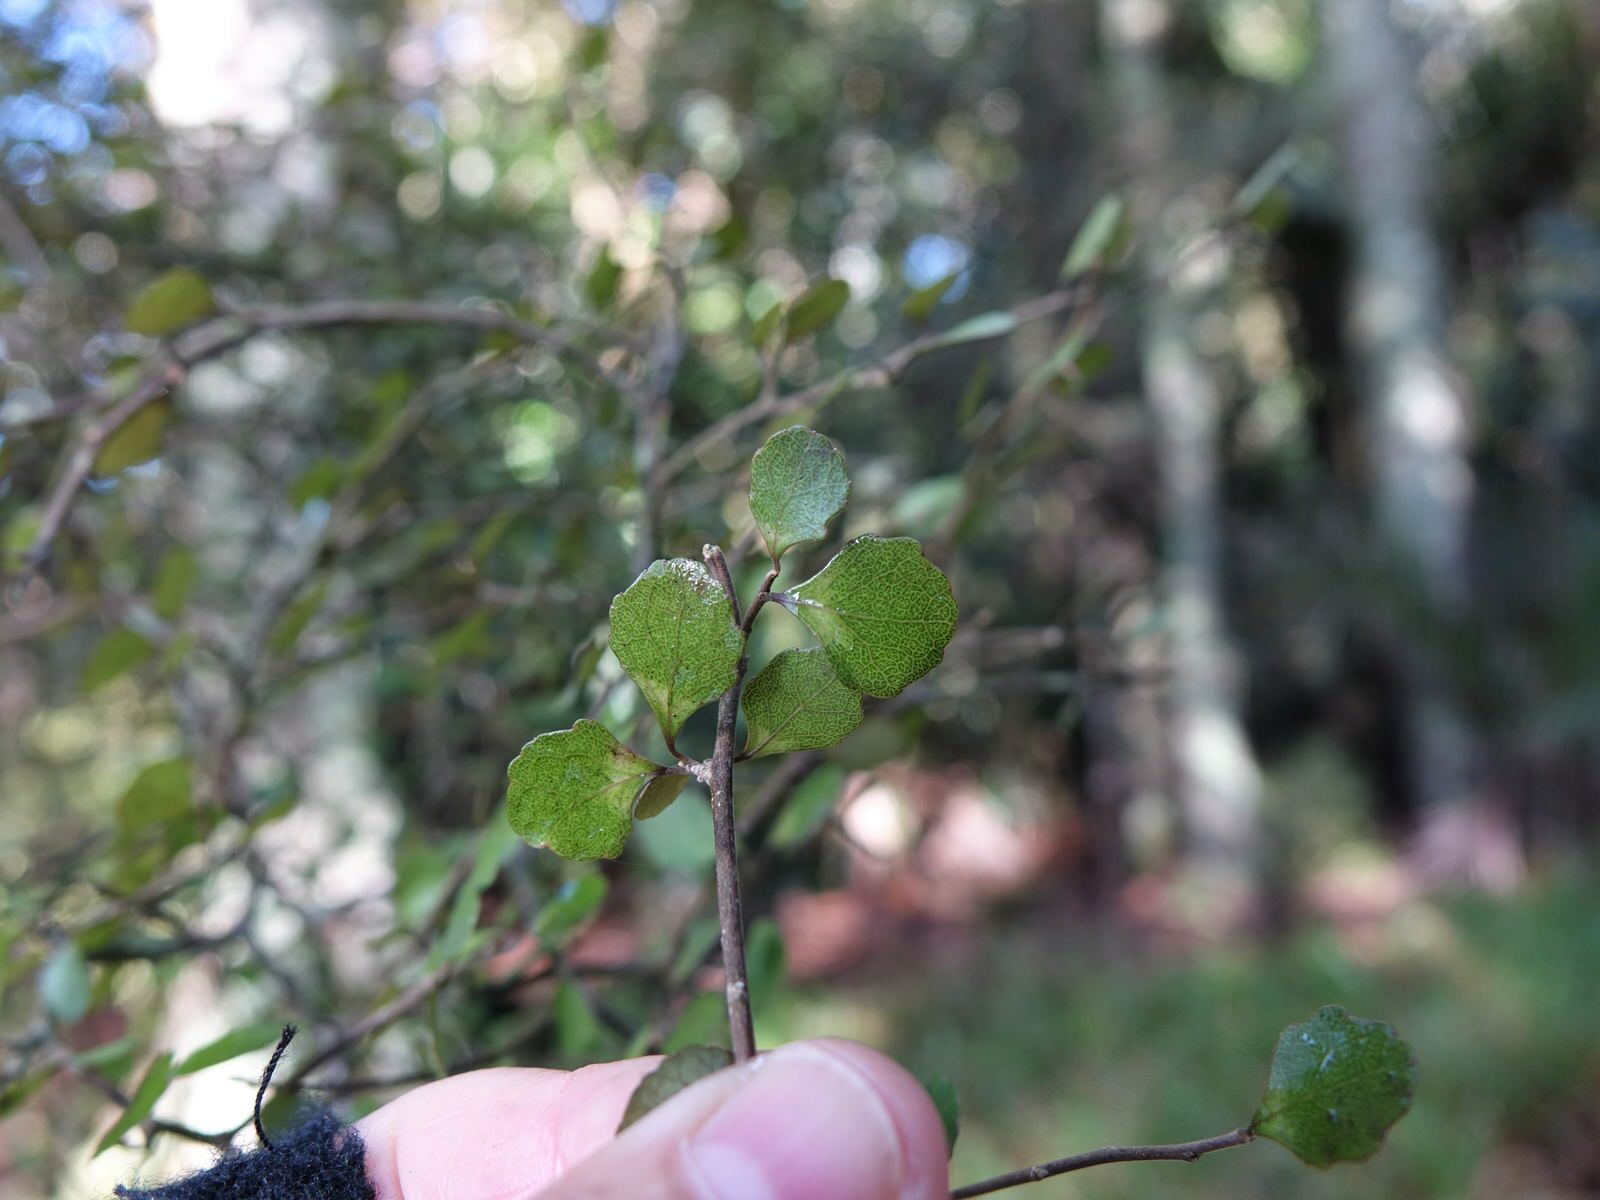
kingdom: Animalia
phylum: Chordata
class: Aves
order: Columbiformes
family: Columbidae
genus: Hemiphaga
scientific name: Hemiphaga novaeseelandiae
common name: New zealand pigeon
